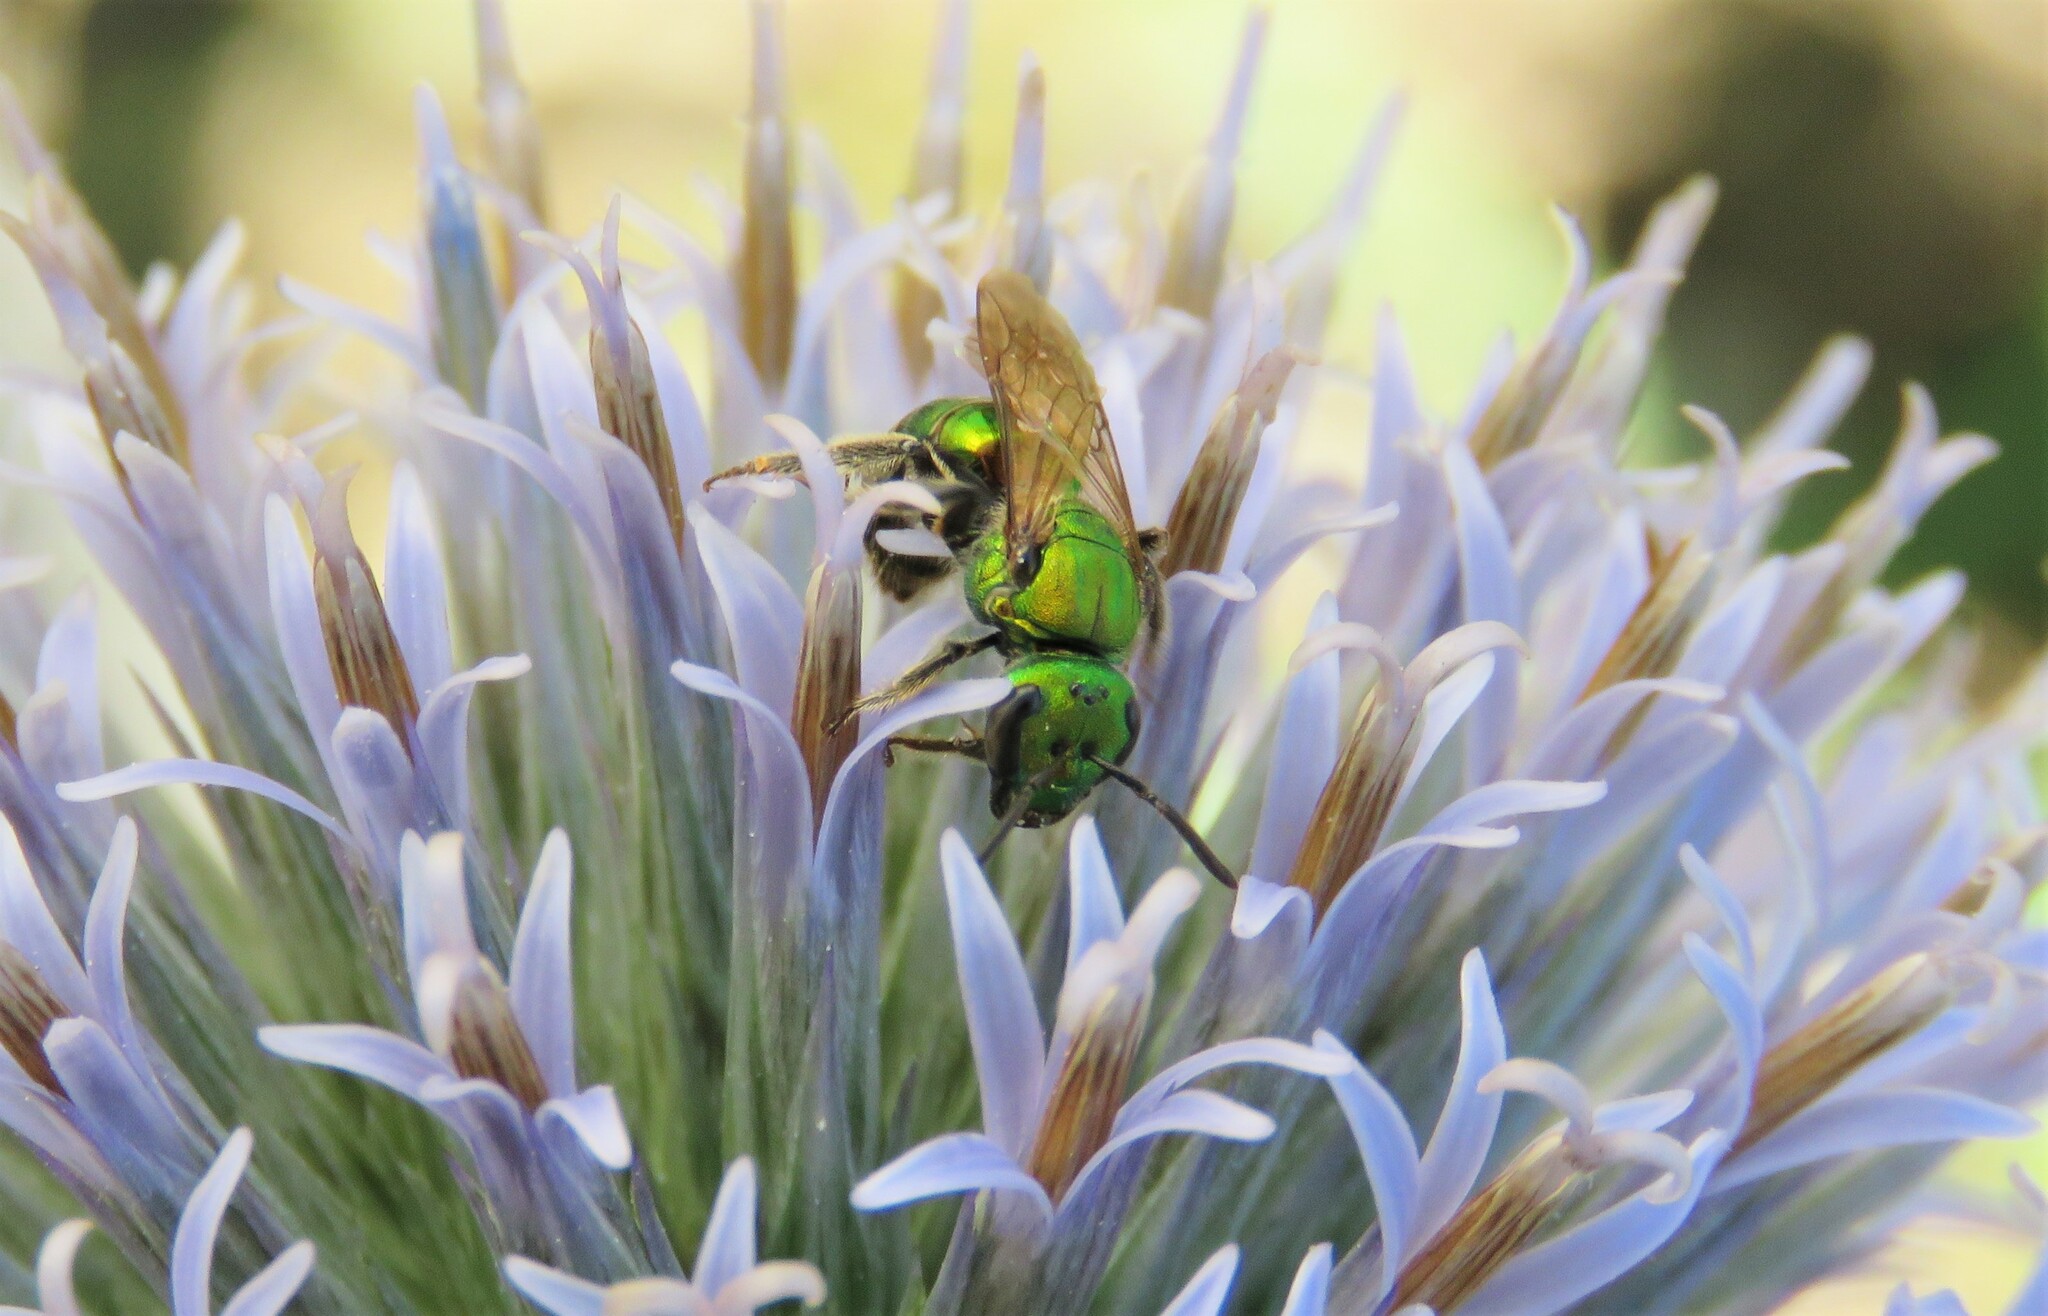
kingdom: Animalia
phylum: Arthropoda
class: Insecta
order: Hymenoptera
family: Halictidae
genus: Augochlora
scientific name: Augochlora pura
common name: Pure green sweat bee
